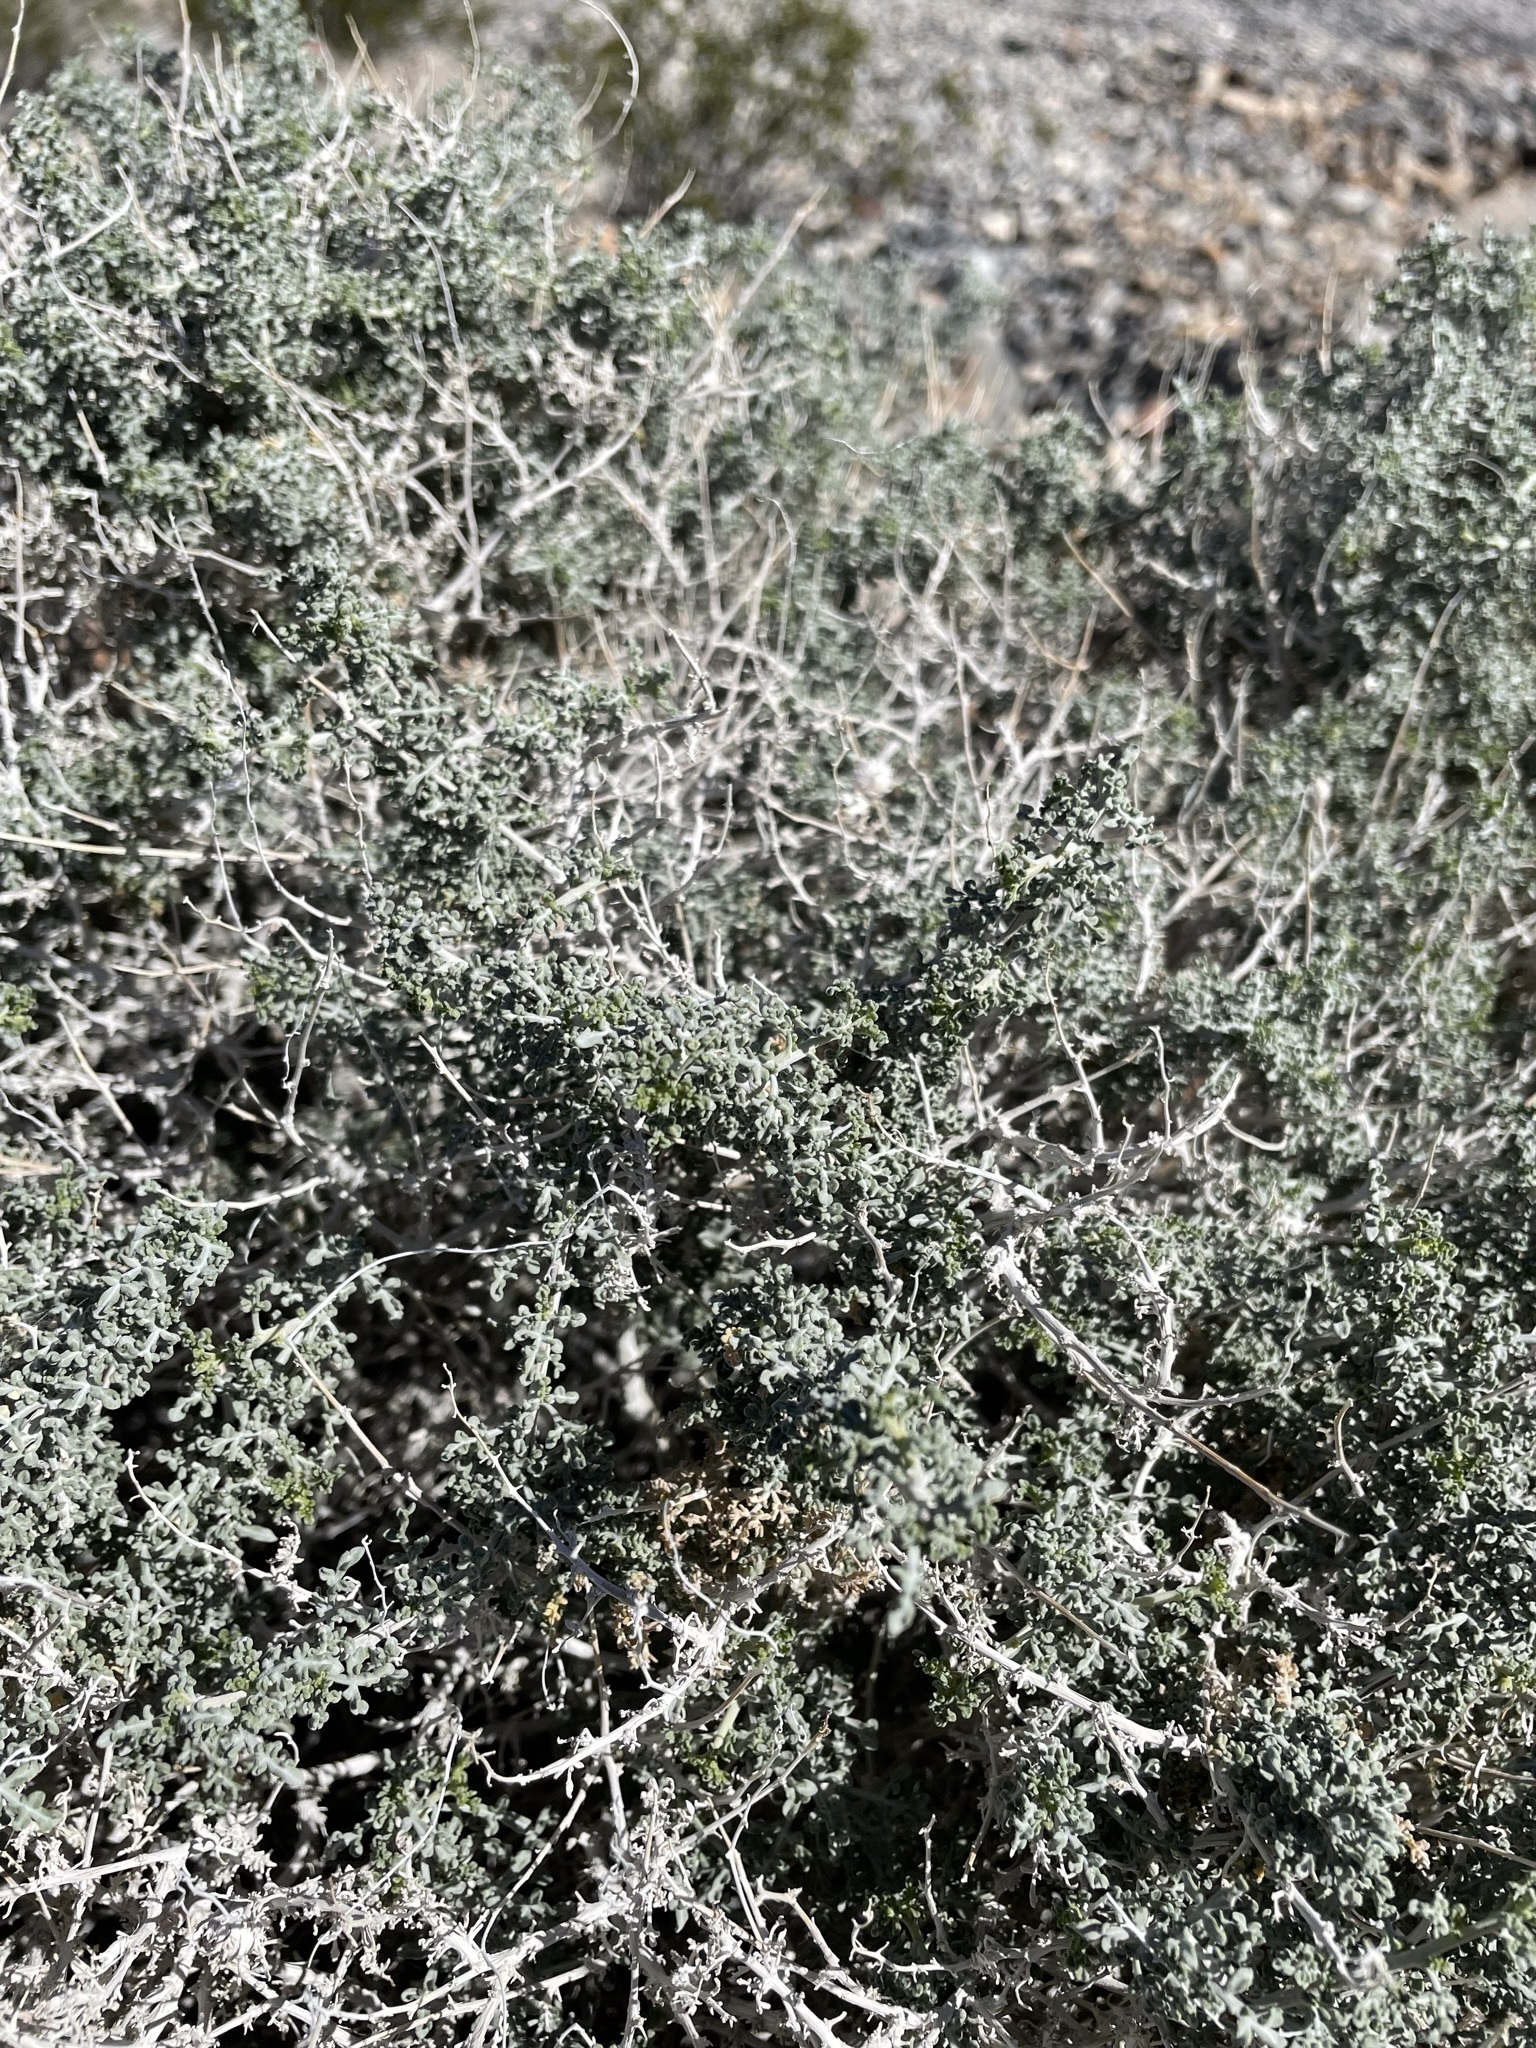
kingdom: Plantae
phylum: Tracheophyta
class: Magnoliopsida
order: Asterales
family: Asteraceae
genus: Ambrosia
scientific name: Ambrosia dumosa
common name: Bur-sage
